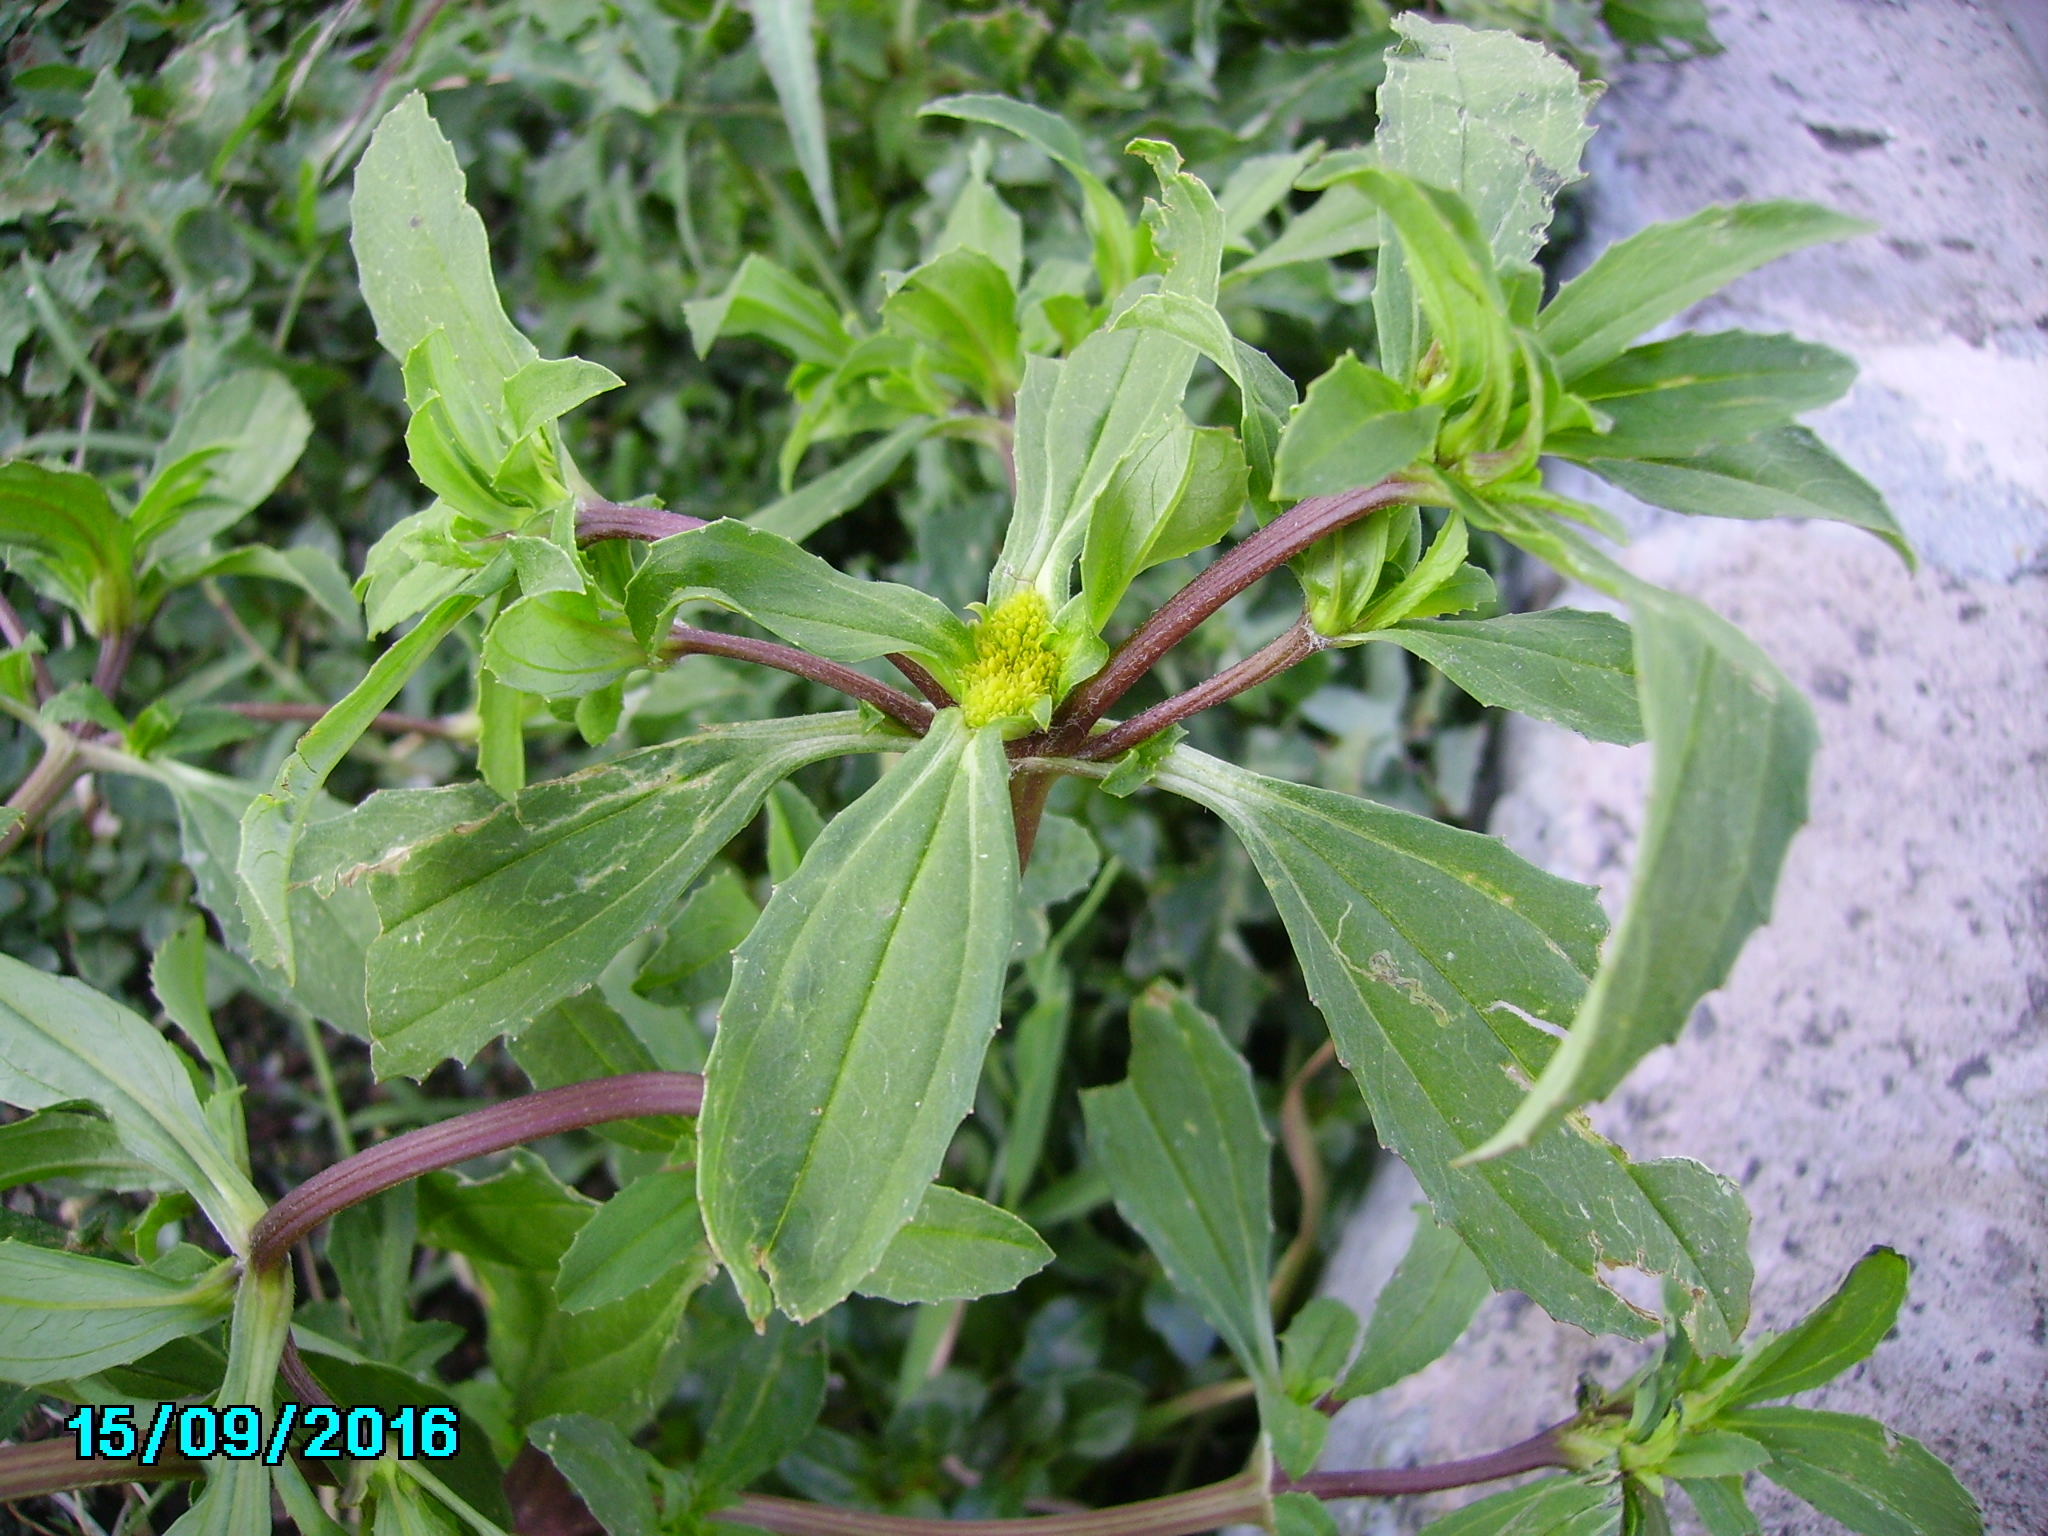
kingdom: Plantae
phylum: Tracheophyta
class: Magnoliopsida
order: Asterales
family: Asteraceae
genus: Flaveria
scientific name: Flaveria trinervia
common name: Clustered yellowtops
